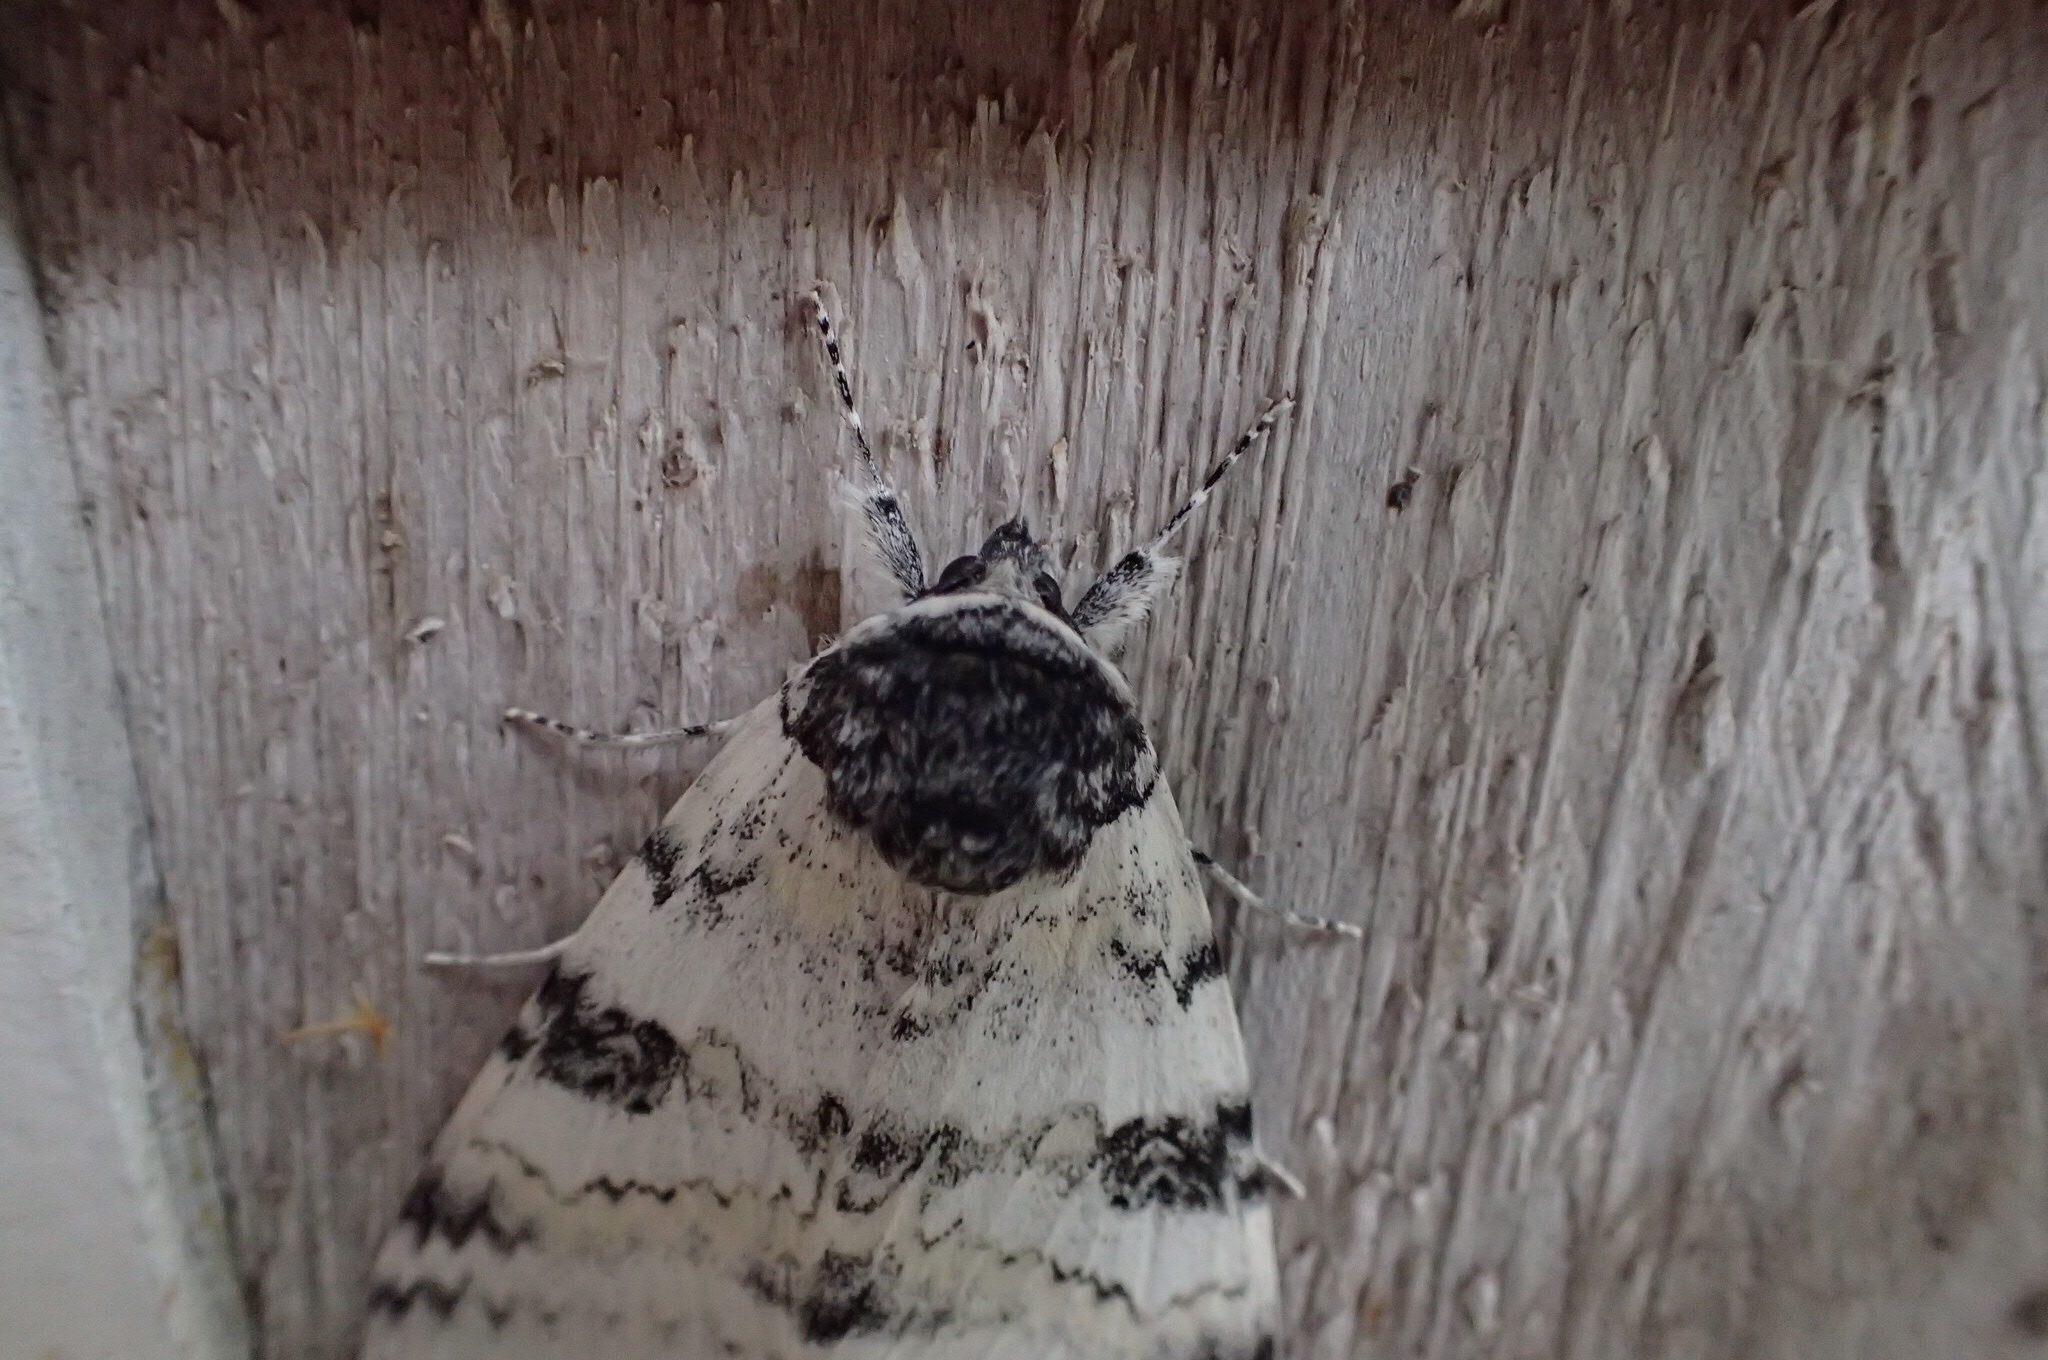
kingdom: Animalia
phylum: Arthropoda
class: Insecta
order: Lepidoptera
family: Erebidae
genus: Catocala
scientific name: Catocala relicta
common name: White underwing
